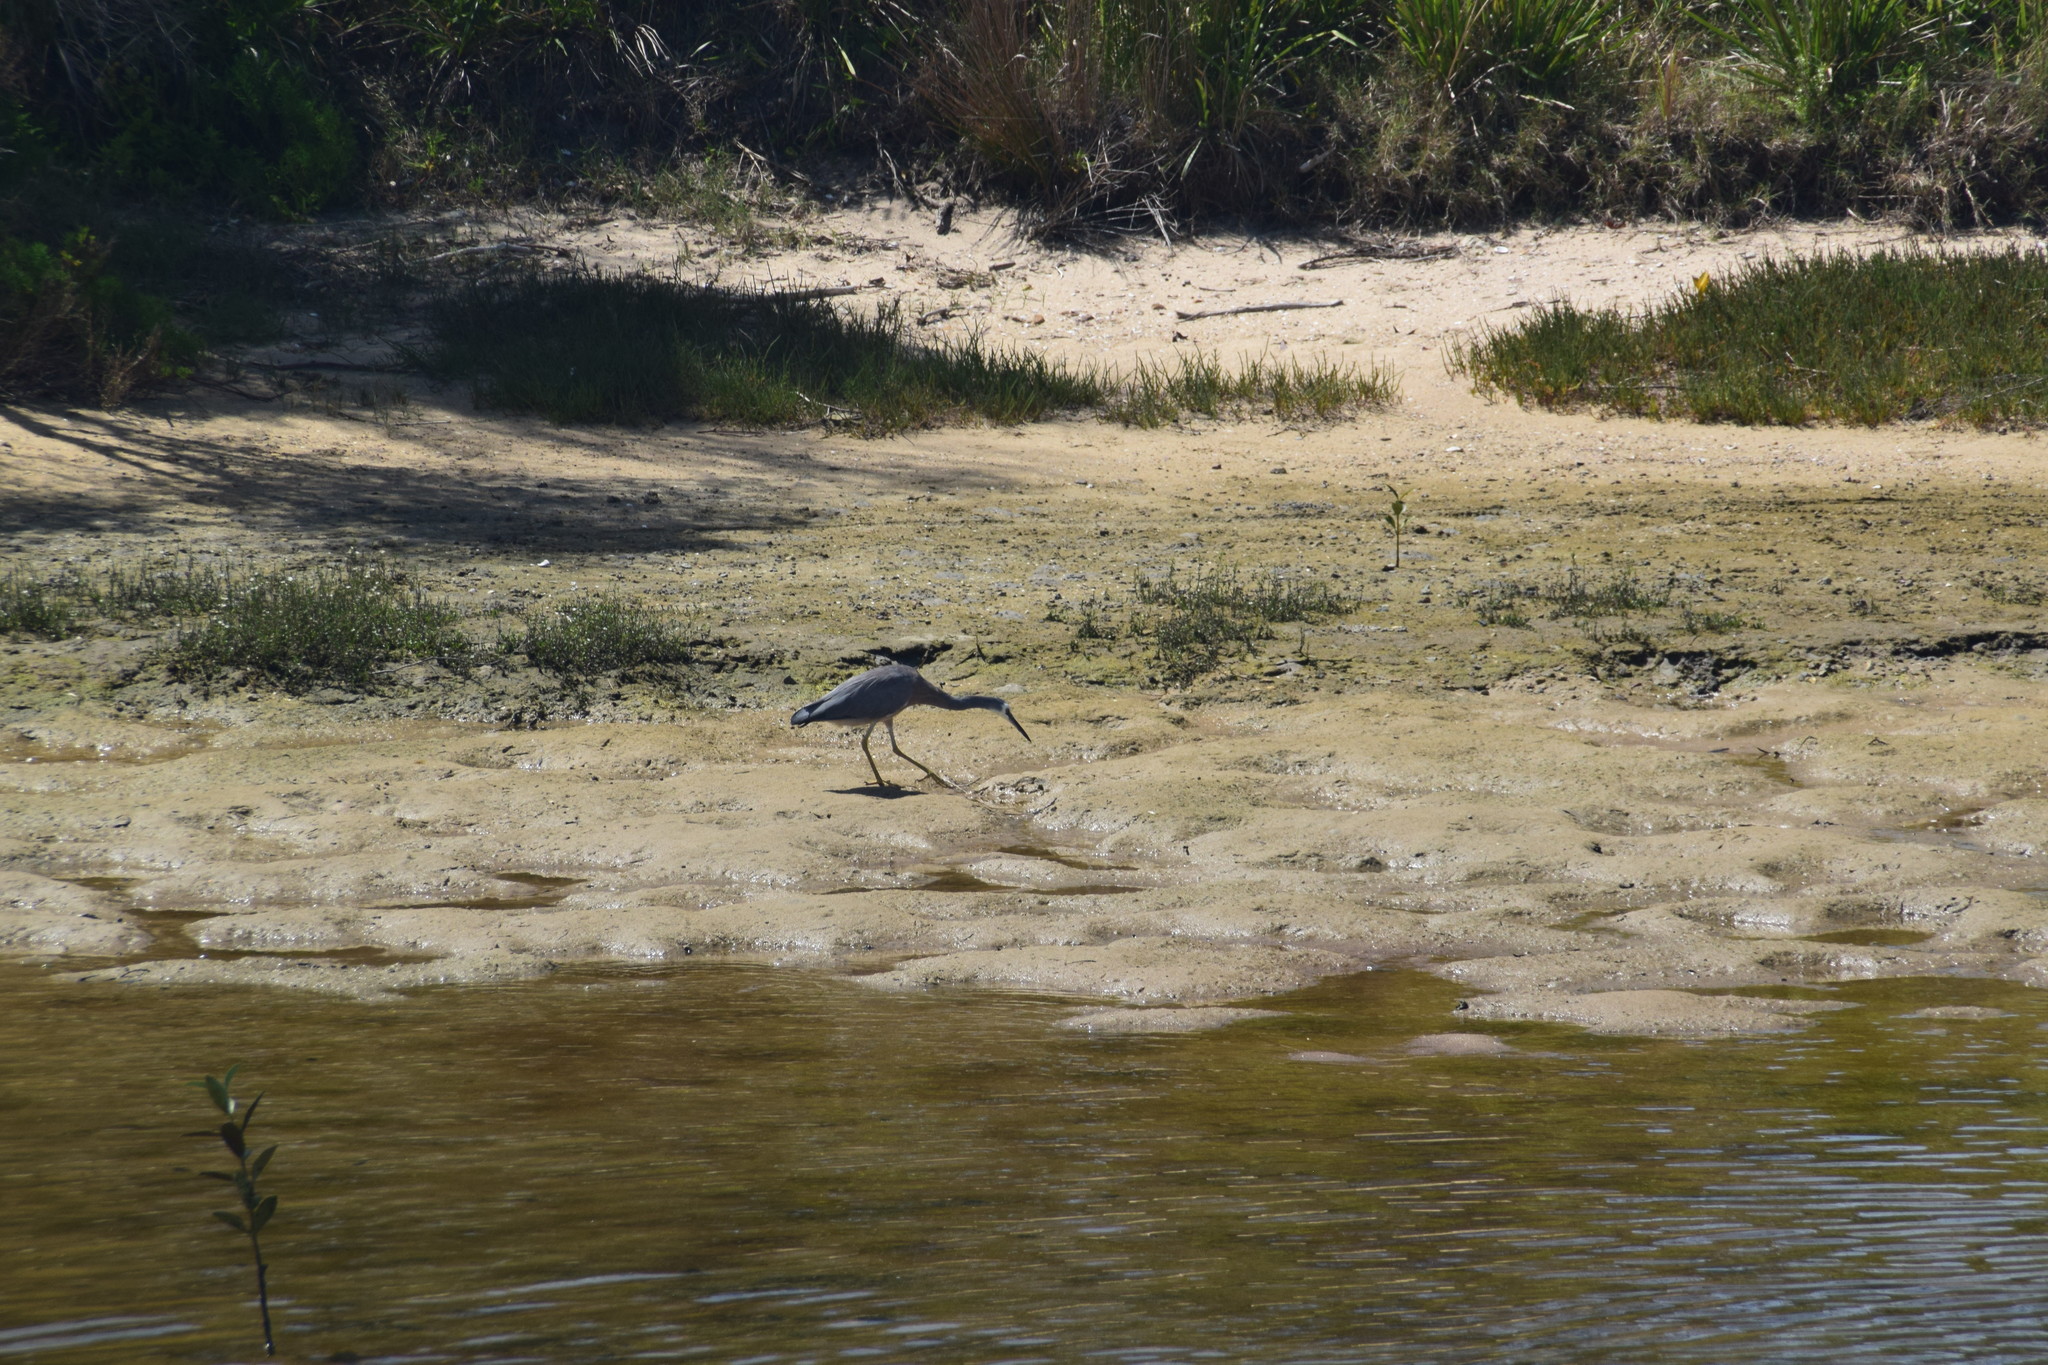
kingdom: Animalia
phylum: Chordata
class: Aves
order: Pelecaniformes
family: Ardeidae
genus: Egretta
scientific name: Egretta novaehollandiae
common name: White-faced heron
